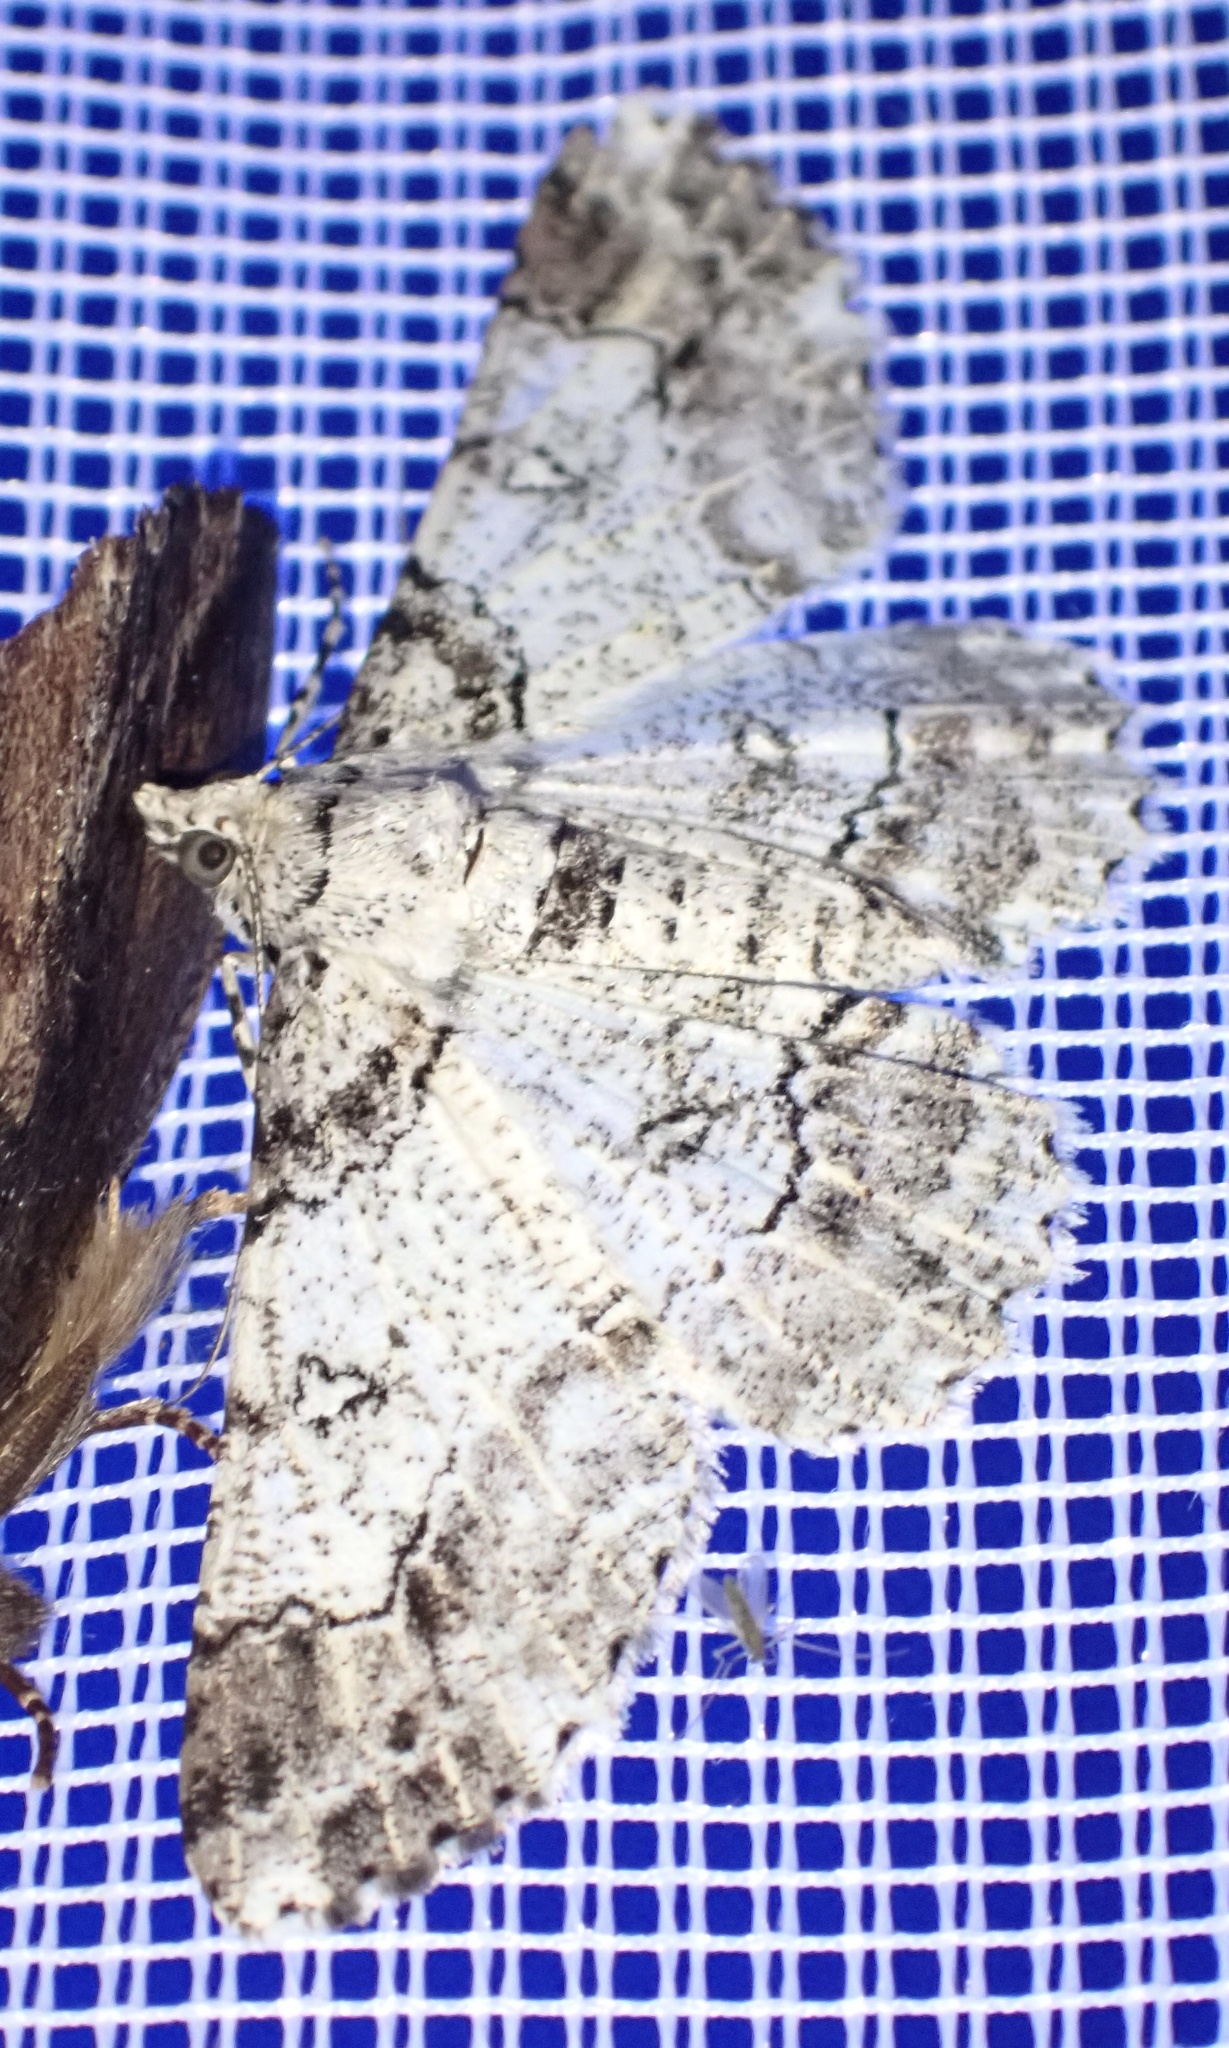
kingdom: Animalia
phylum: Arthropoda
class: Insecta
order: Lepidoptera
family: Geometridae
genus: Cleora
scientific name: Cleora illustraria
